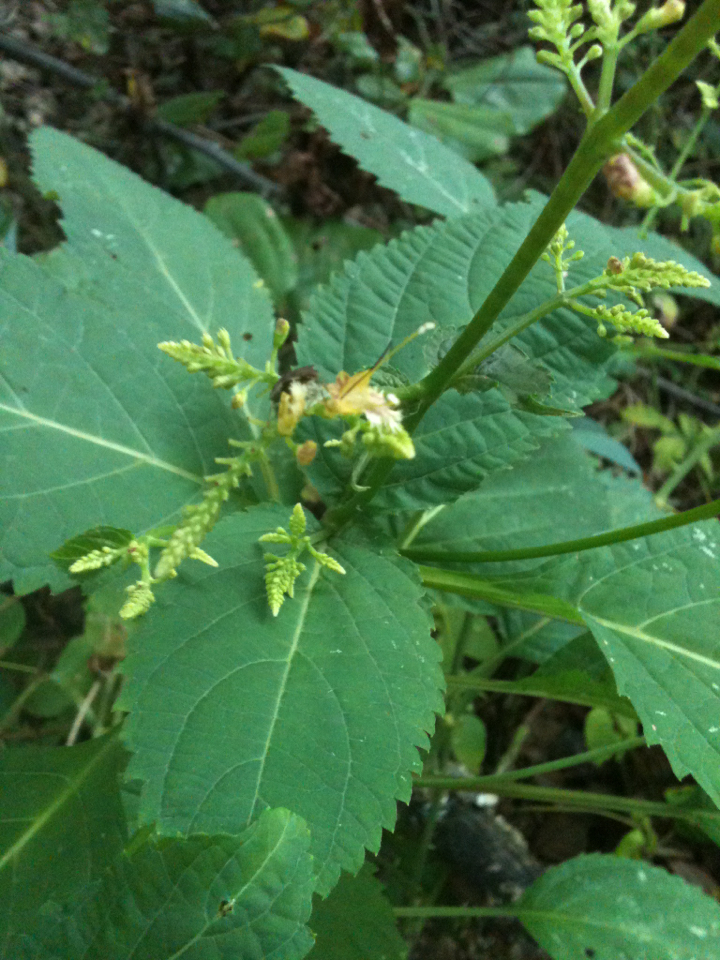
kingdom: Plantae
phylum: Tracheophyta
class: Magnoliopsida
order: Lamiales
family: Lamiaceae
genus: Collinsonia
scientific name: Collinsonia canadensis
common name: Northern horsebalm
